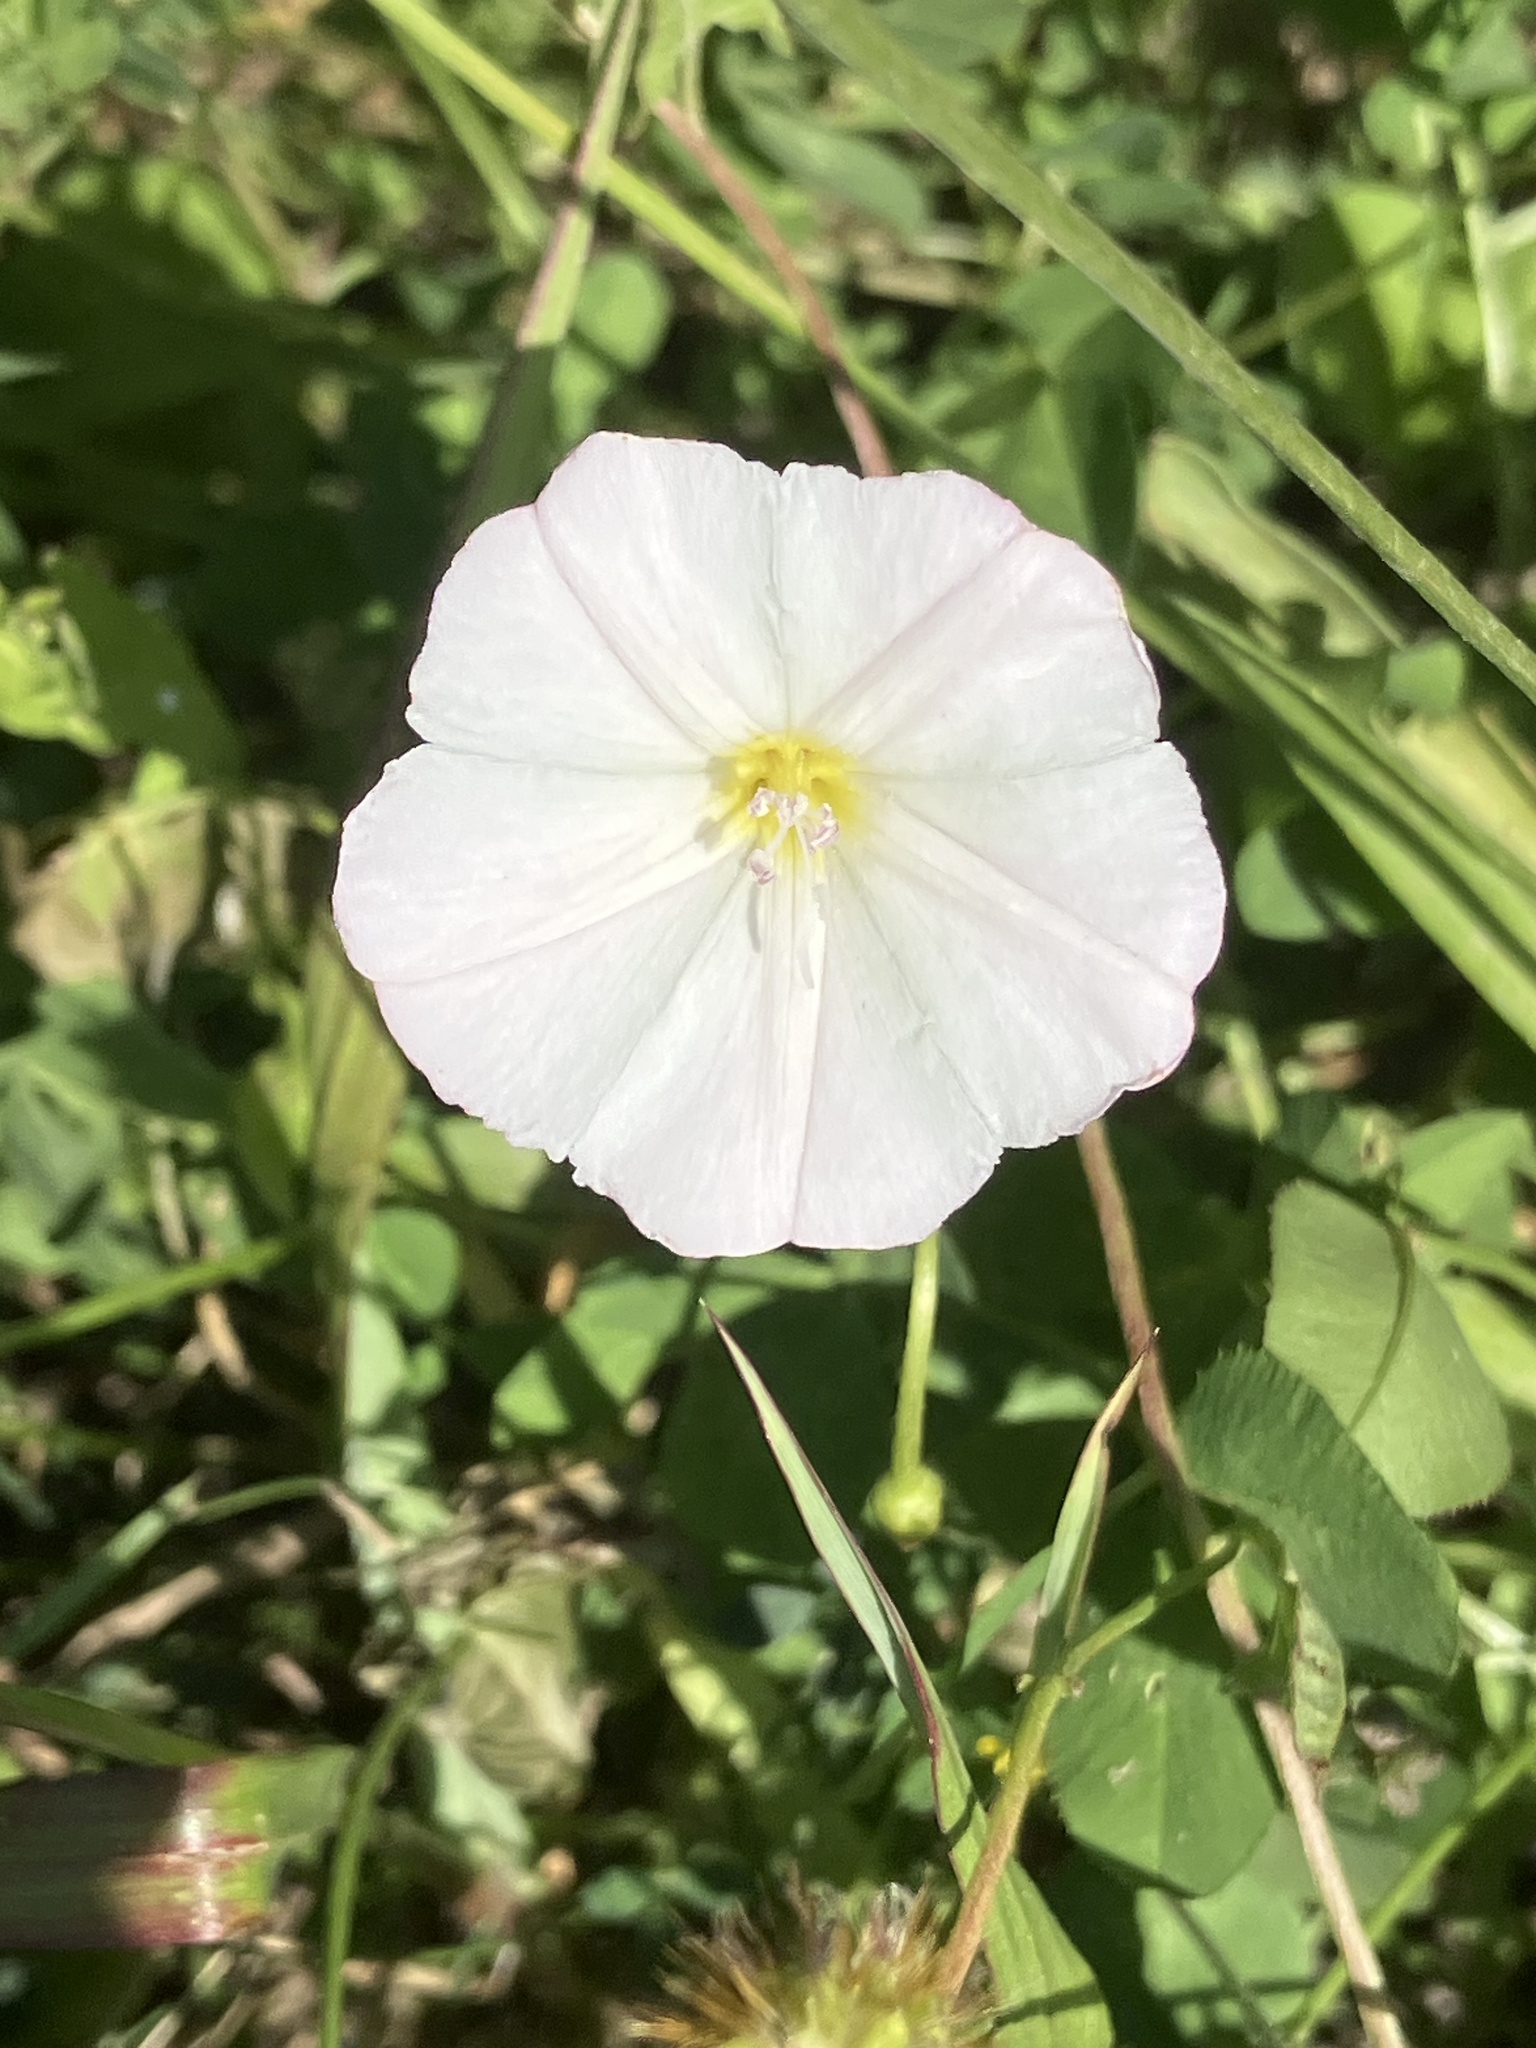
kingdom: Plantae
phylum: Tracheophyta
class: Magnoliopsida
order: Solanales
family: Convolvulaceae
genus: Convolvulus
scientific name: Convolvulus arvensis
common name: Field bindweed
